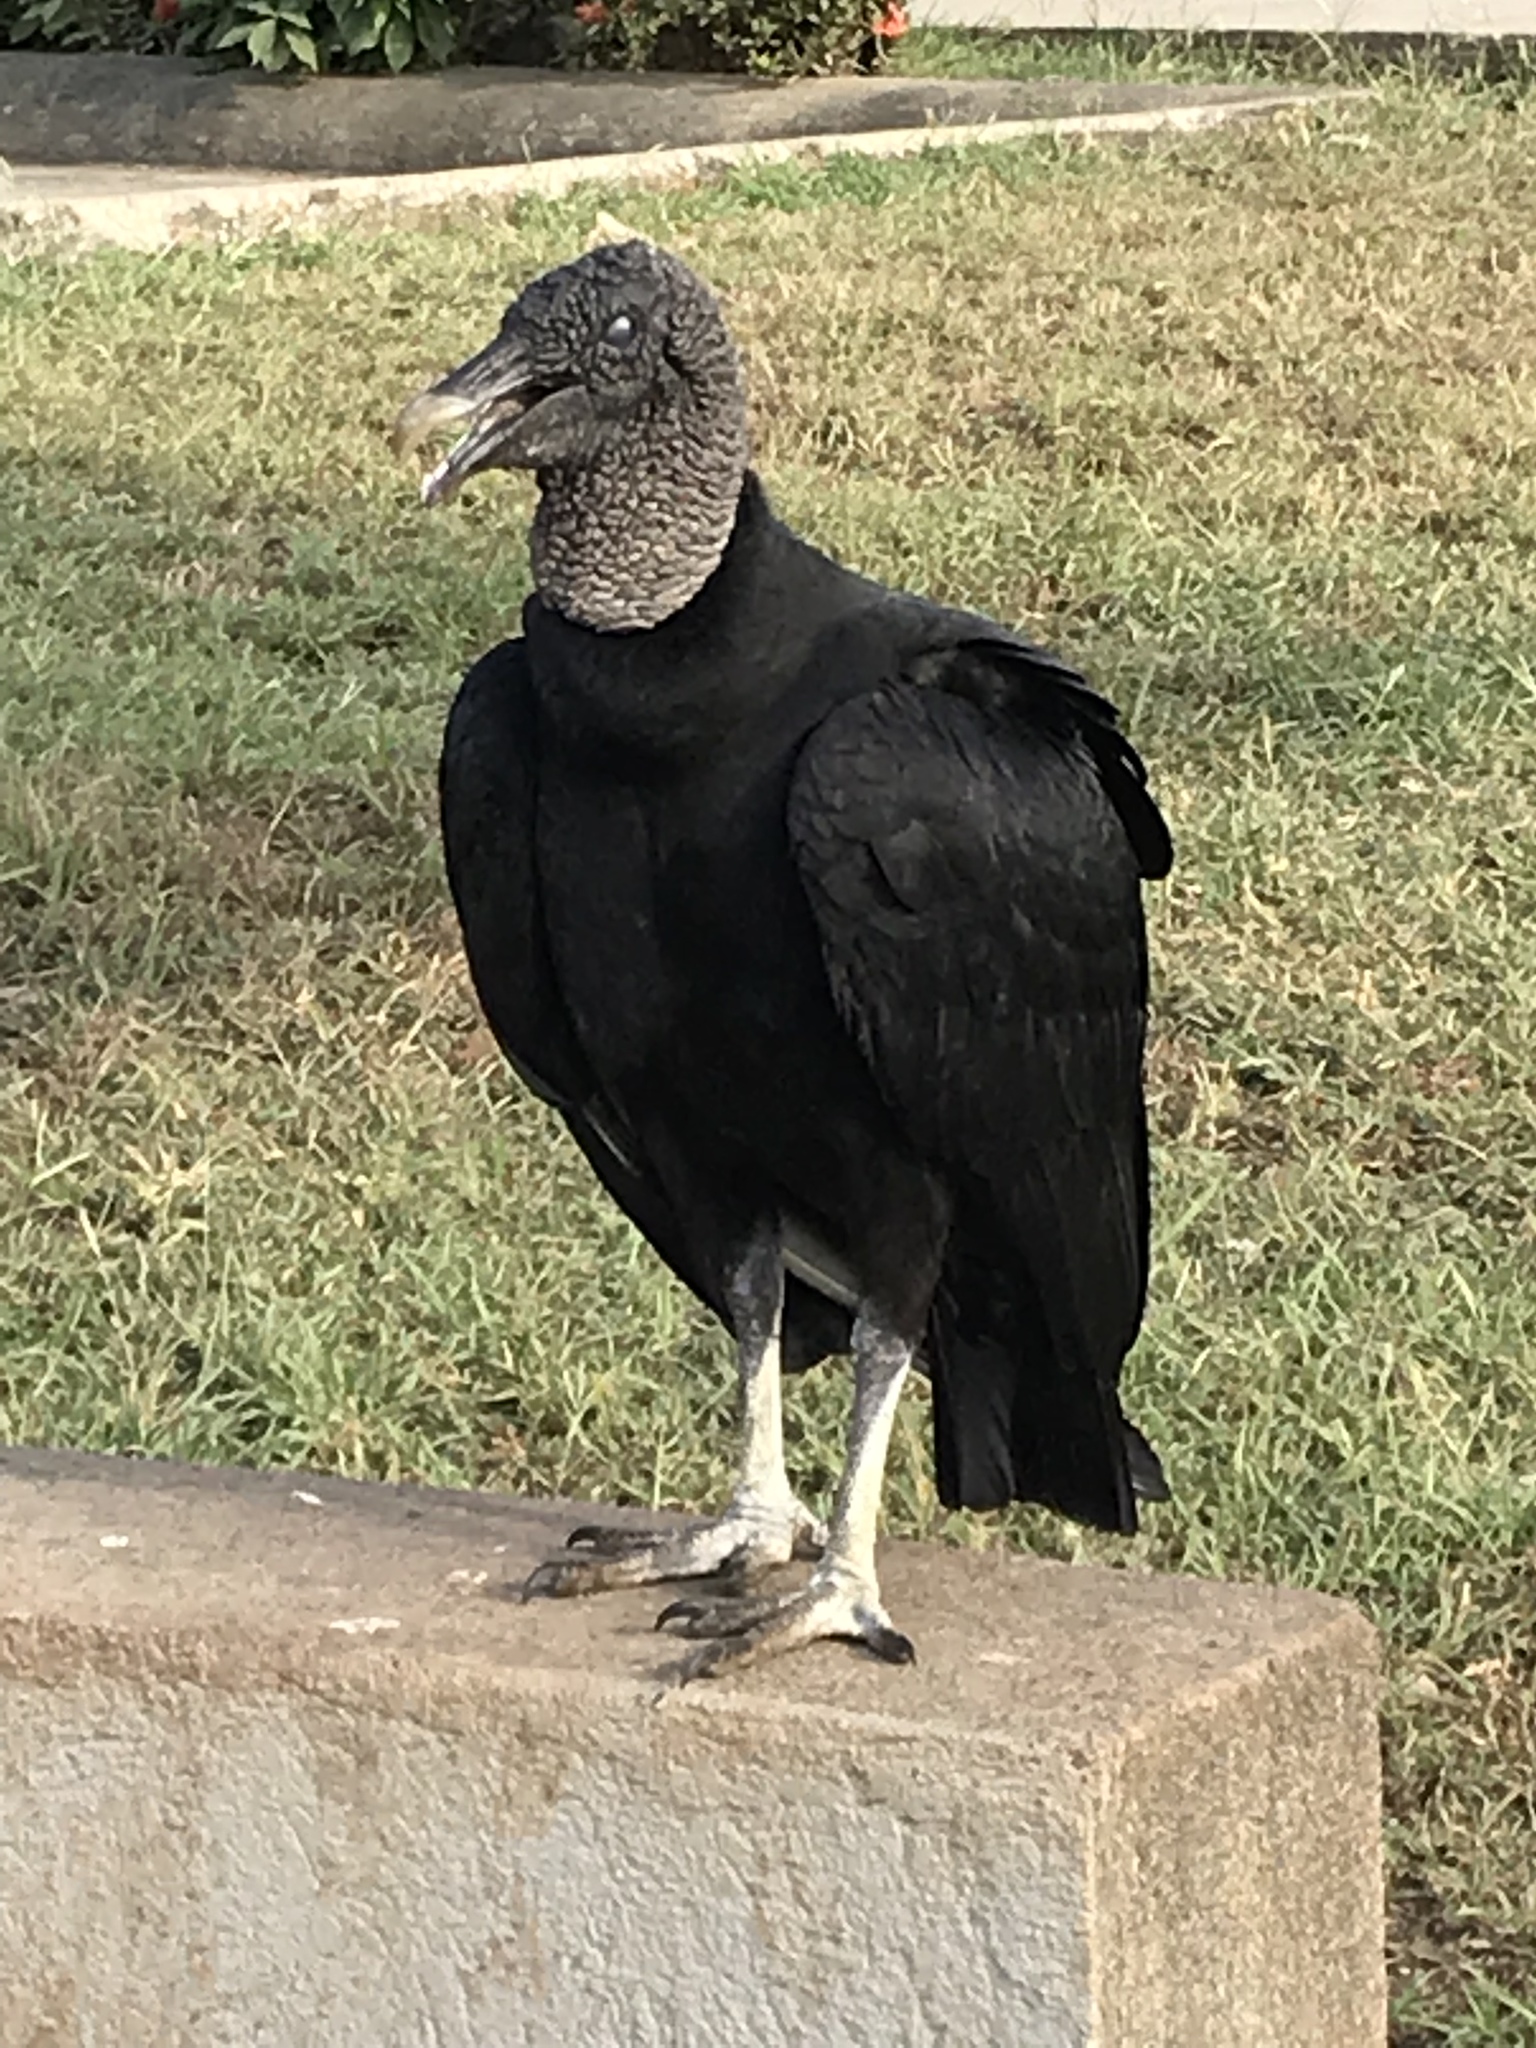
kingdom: Animalia
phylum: Chordata
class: Aves
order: Accipitriformes
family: Cathartidae
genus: Coragyps
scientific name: Coragyps atratus
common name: Black vulture
